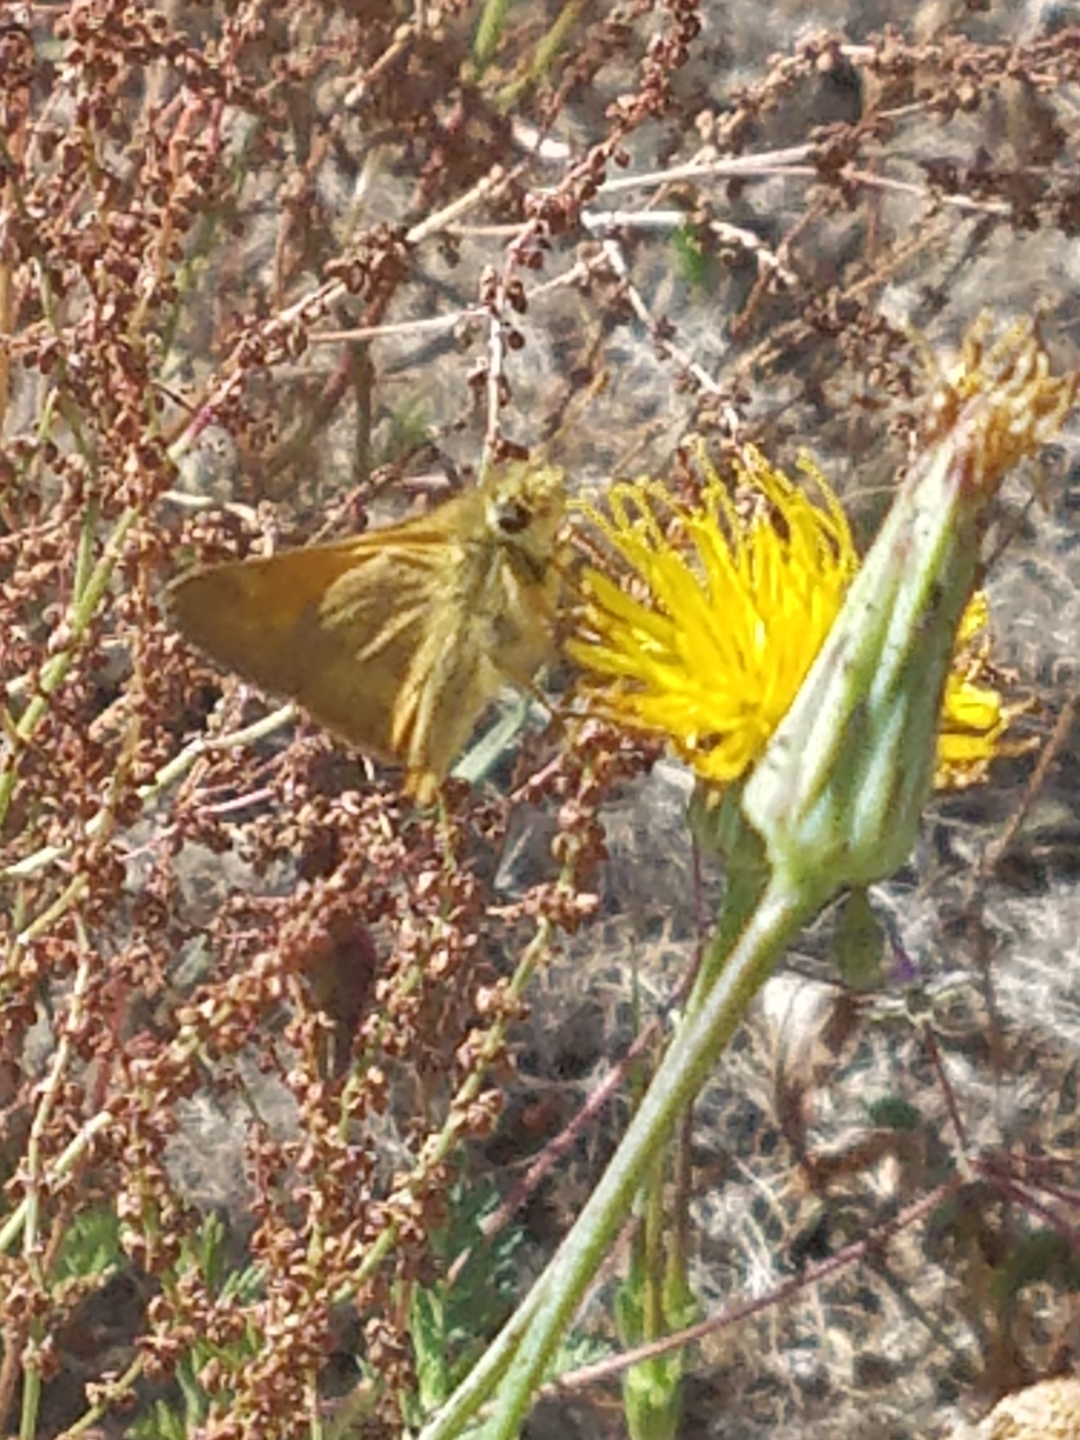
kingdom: Animalia
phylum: Arthropoda
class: Insecta
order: Lepidoptera
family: Hesperiidae
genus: Ochlodes
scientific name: Ochlodes sylvanoides
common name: Woodland skipper
